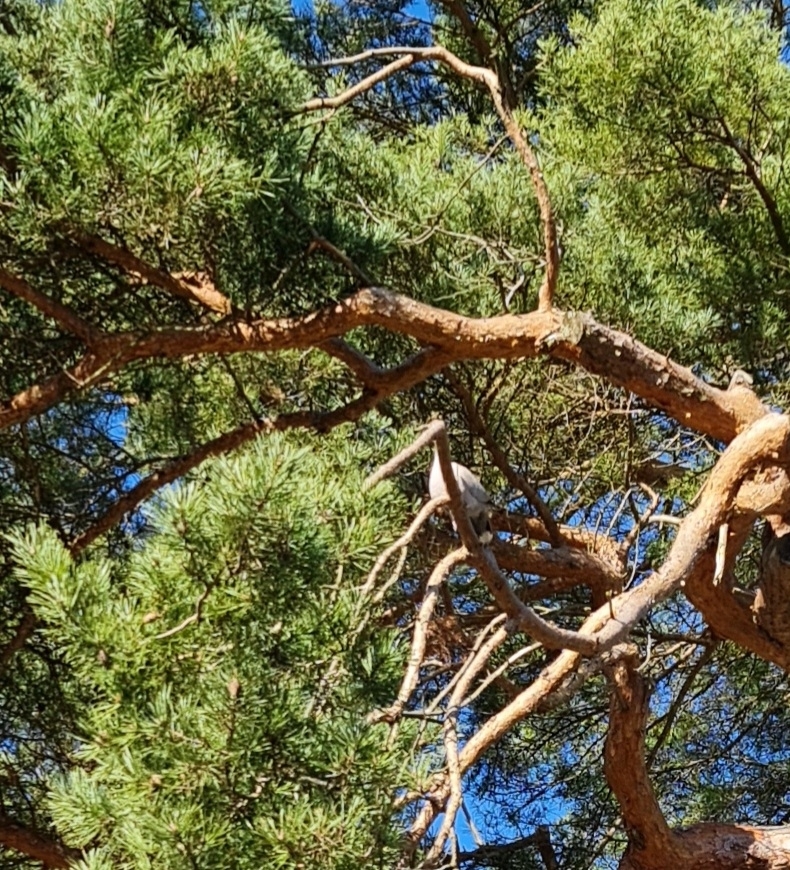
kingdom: Animalia
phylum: Chordata
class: Aves
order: Columbiformes
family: Columbidae
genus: Streptopelia
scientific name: Streptopelia decaocto
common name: Eurasian collared dove
